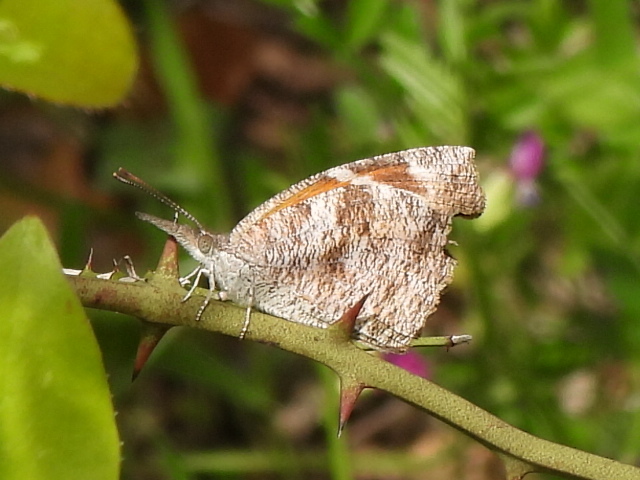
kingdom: Animalia
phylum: Arthropoda
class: Insecta
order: Lepidoptera
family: Nymphalidae
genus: Libytheana
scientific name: Libytheana carinenta
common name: American snout
